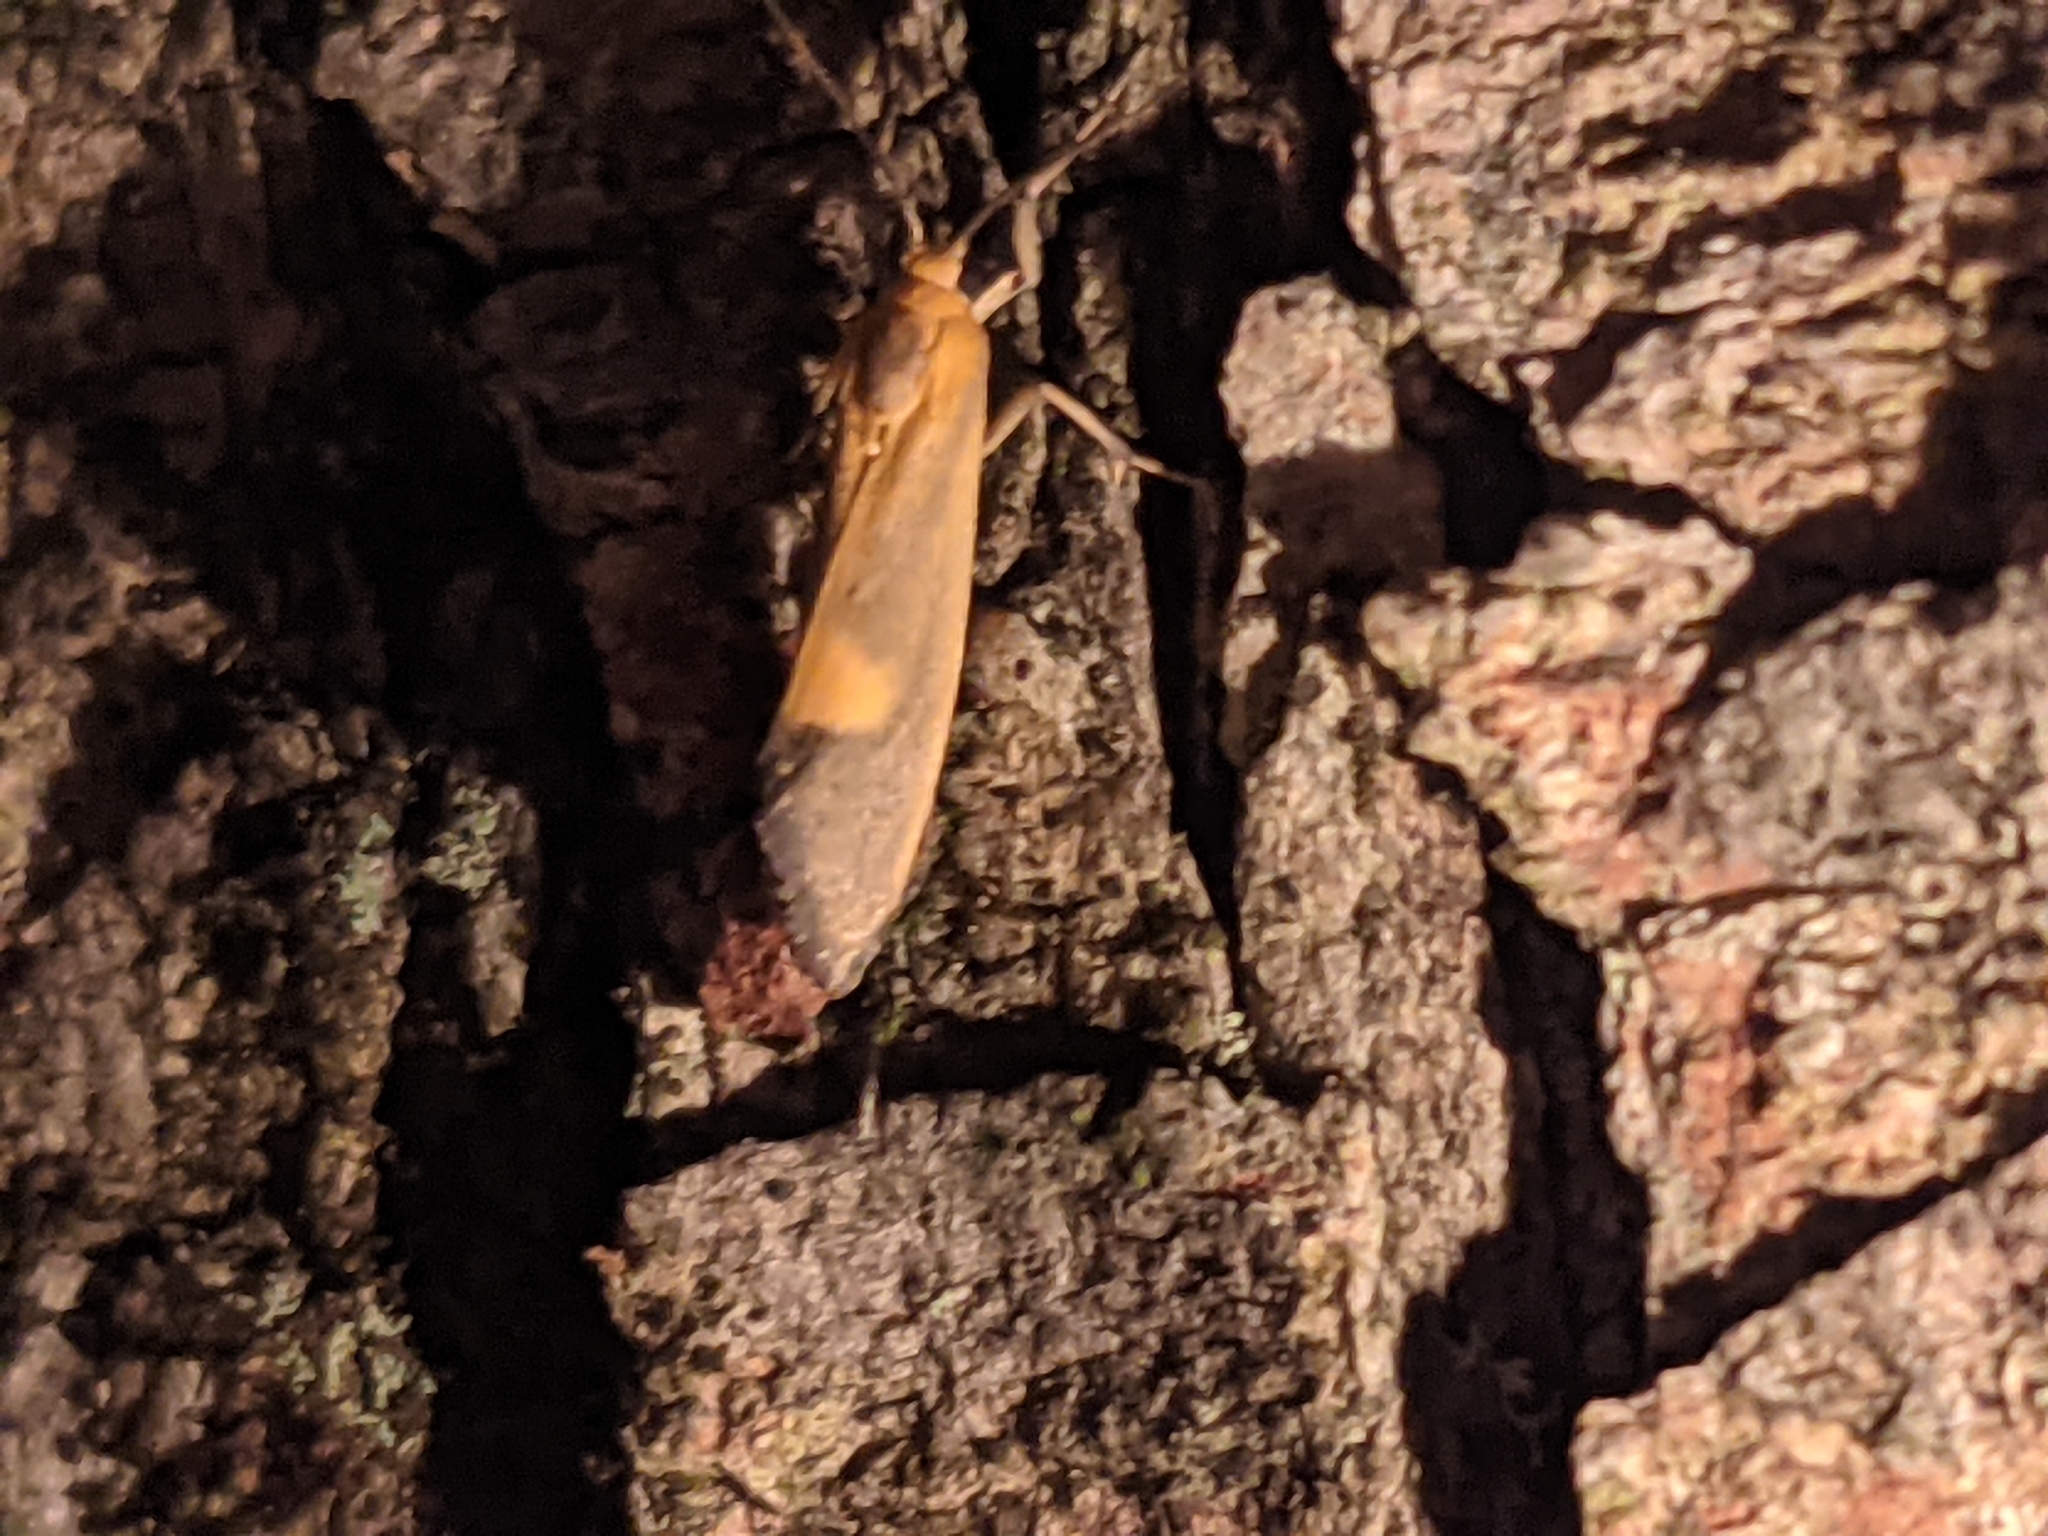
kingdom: Animalia
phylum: Arthropoda
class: Insecta
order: Lepidoptera
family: Erebidae
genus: Cisthene
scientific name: Cisthene plumbea
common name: Lead colored lichen moth
